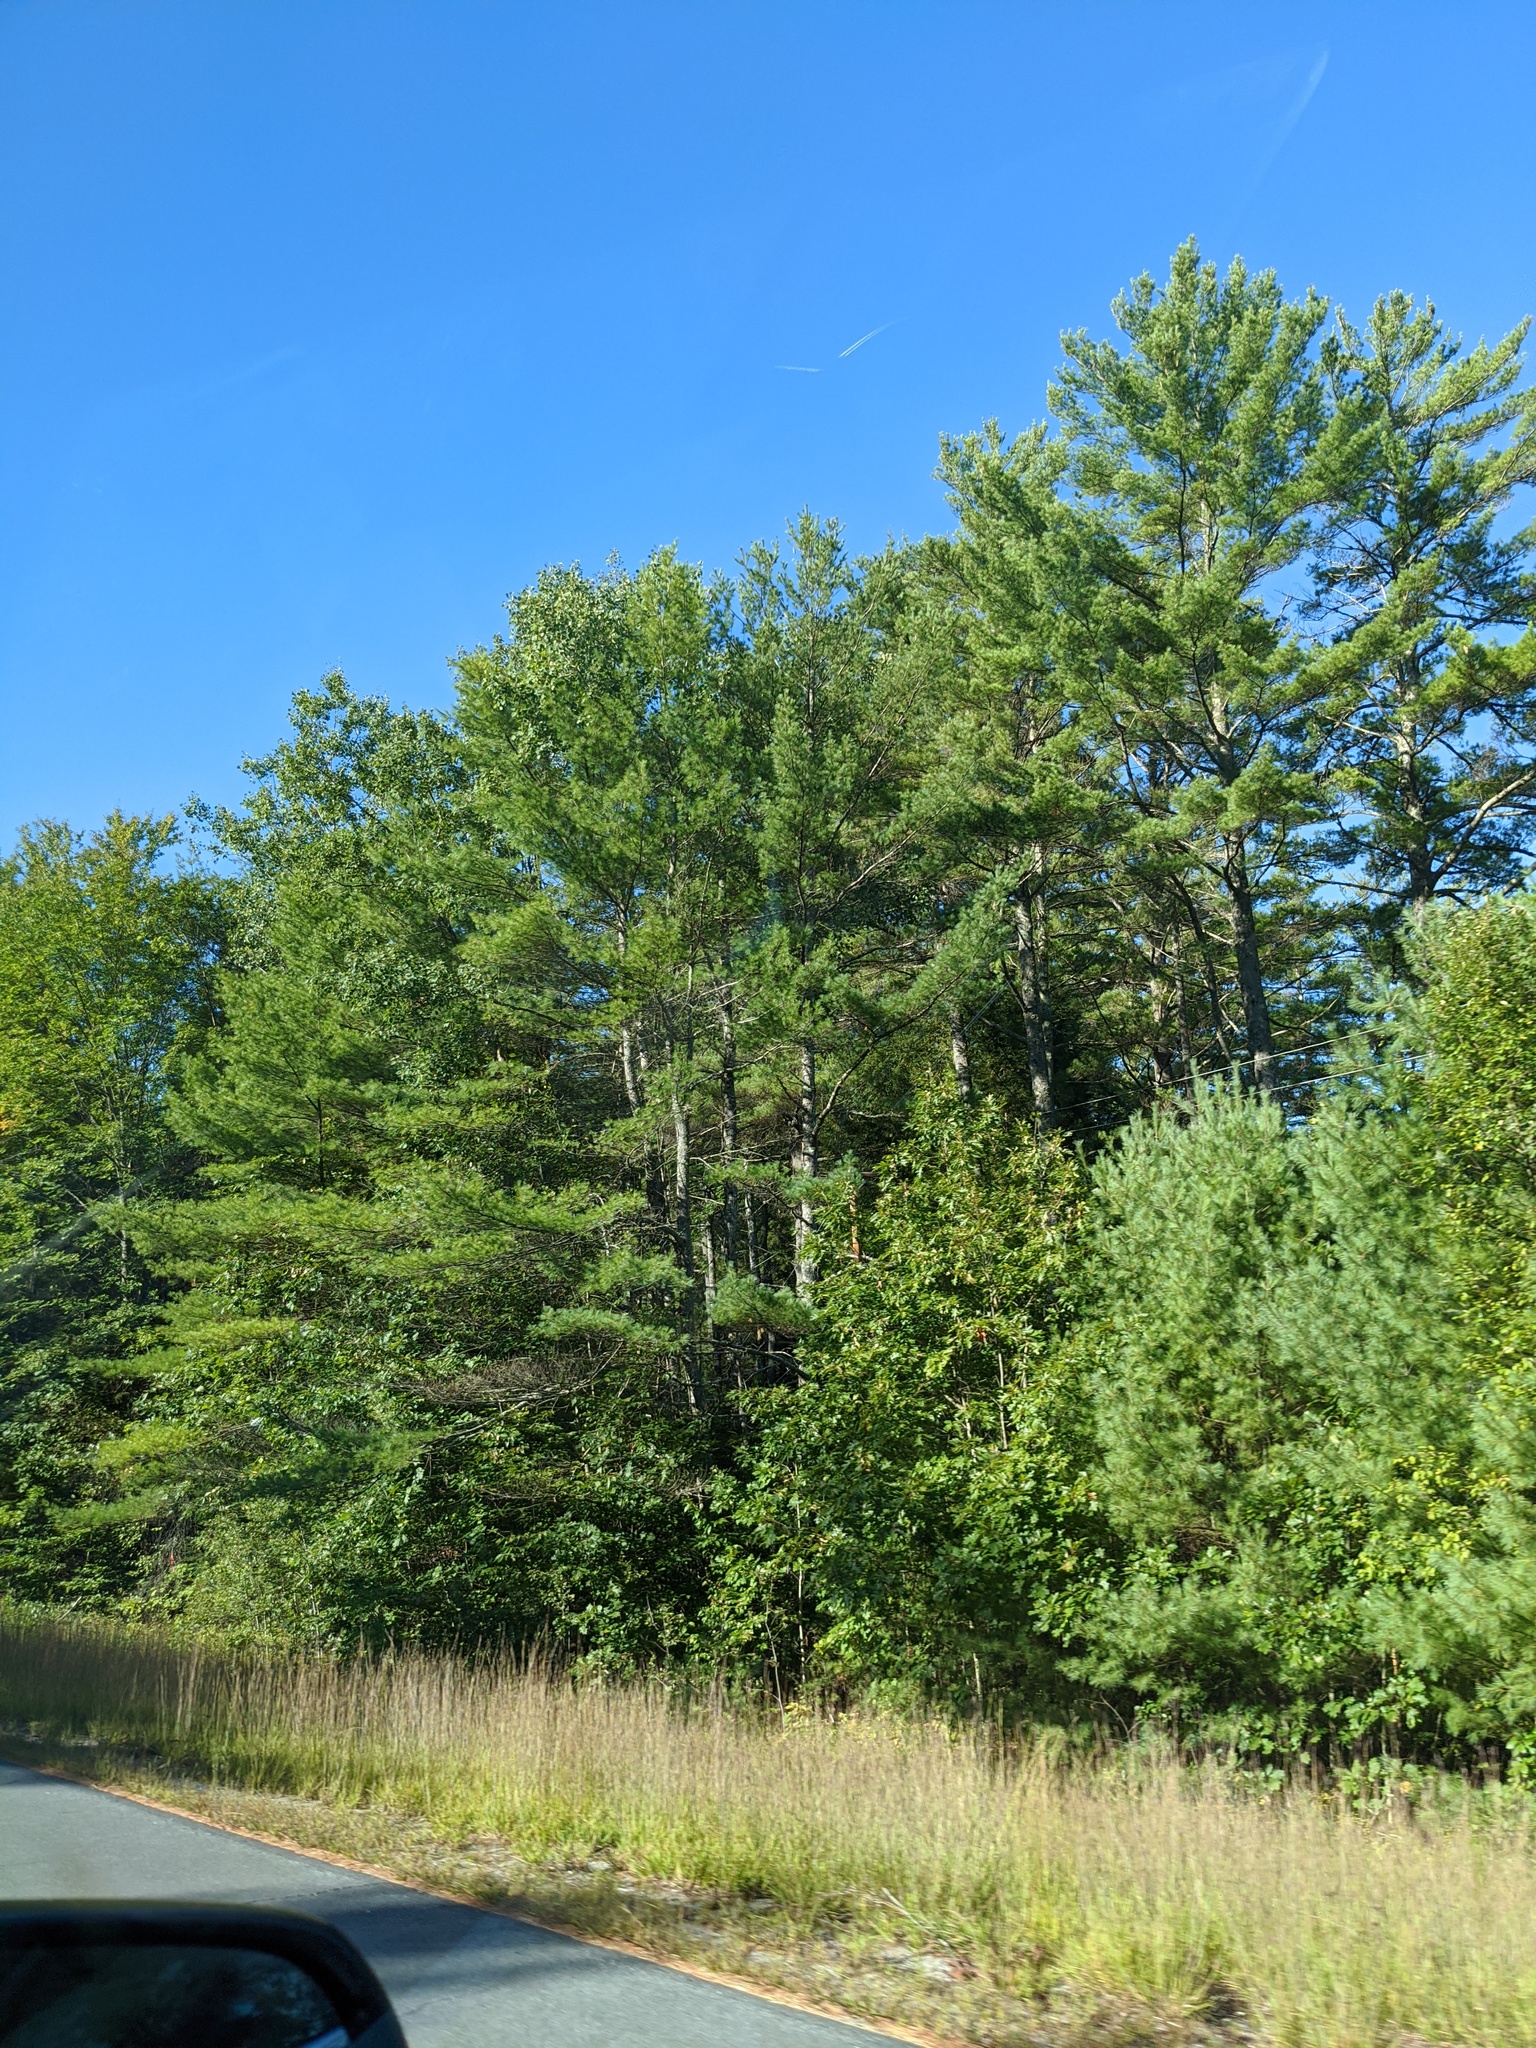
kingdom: Plantae
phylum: Tracheophyta
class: Pinopsida
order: Pinales
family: Pinaceae
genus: Pinus
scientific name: Pinus strobus
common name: Weymouth pine
